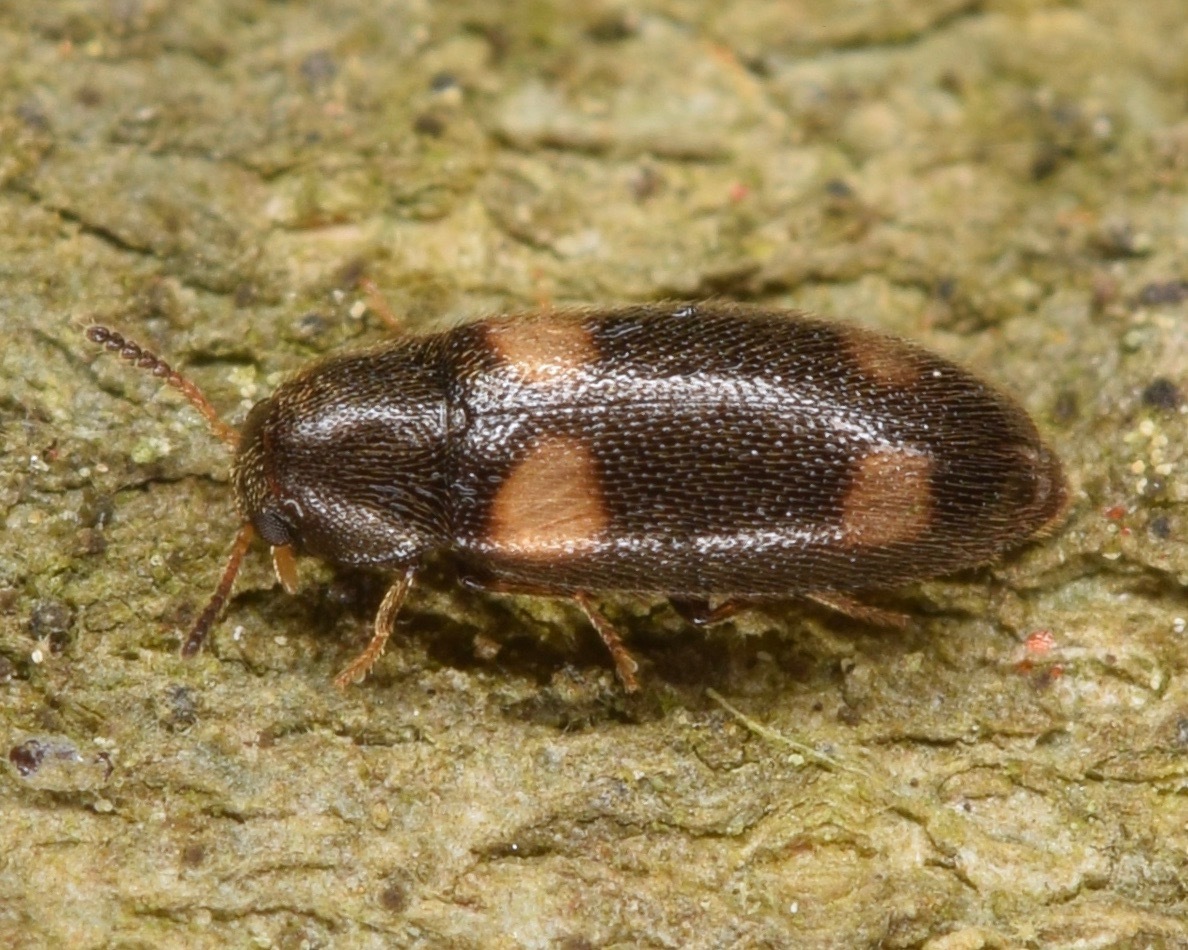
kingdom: Animalia
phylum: Arthropoda
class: Insecta
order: Coleoptera
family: Melandryidae
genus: Spilotus
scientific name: Spilotus quadripustulatus
